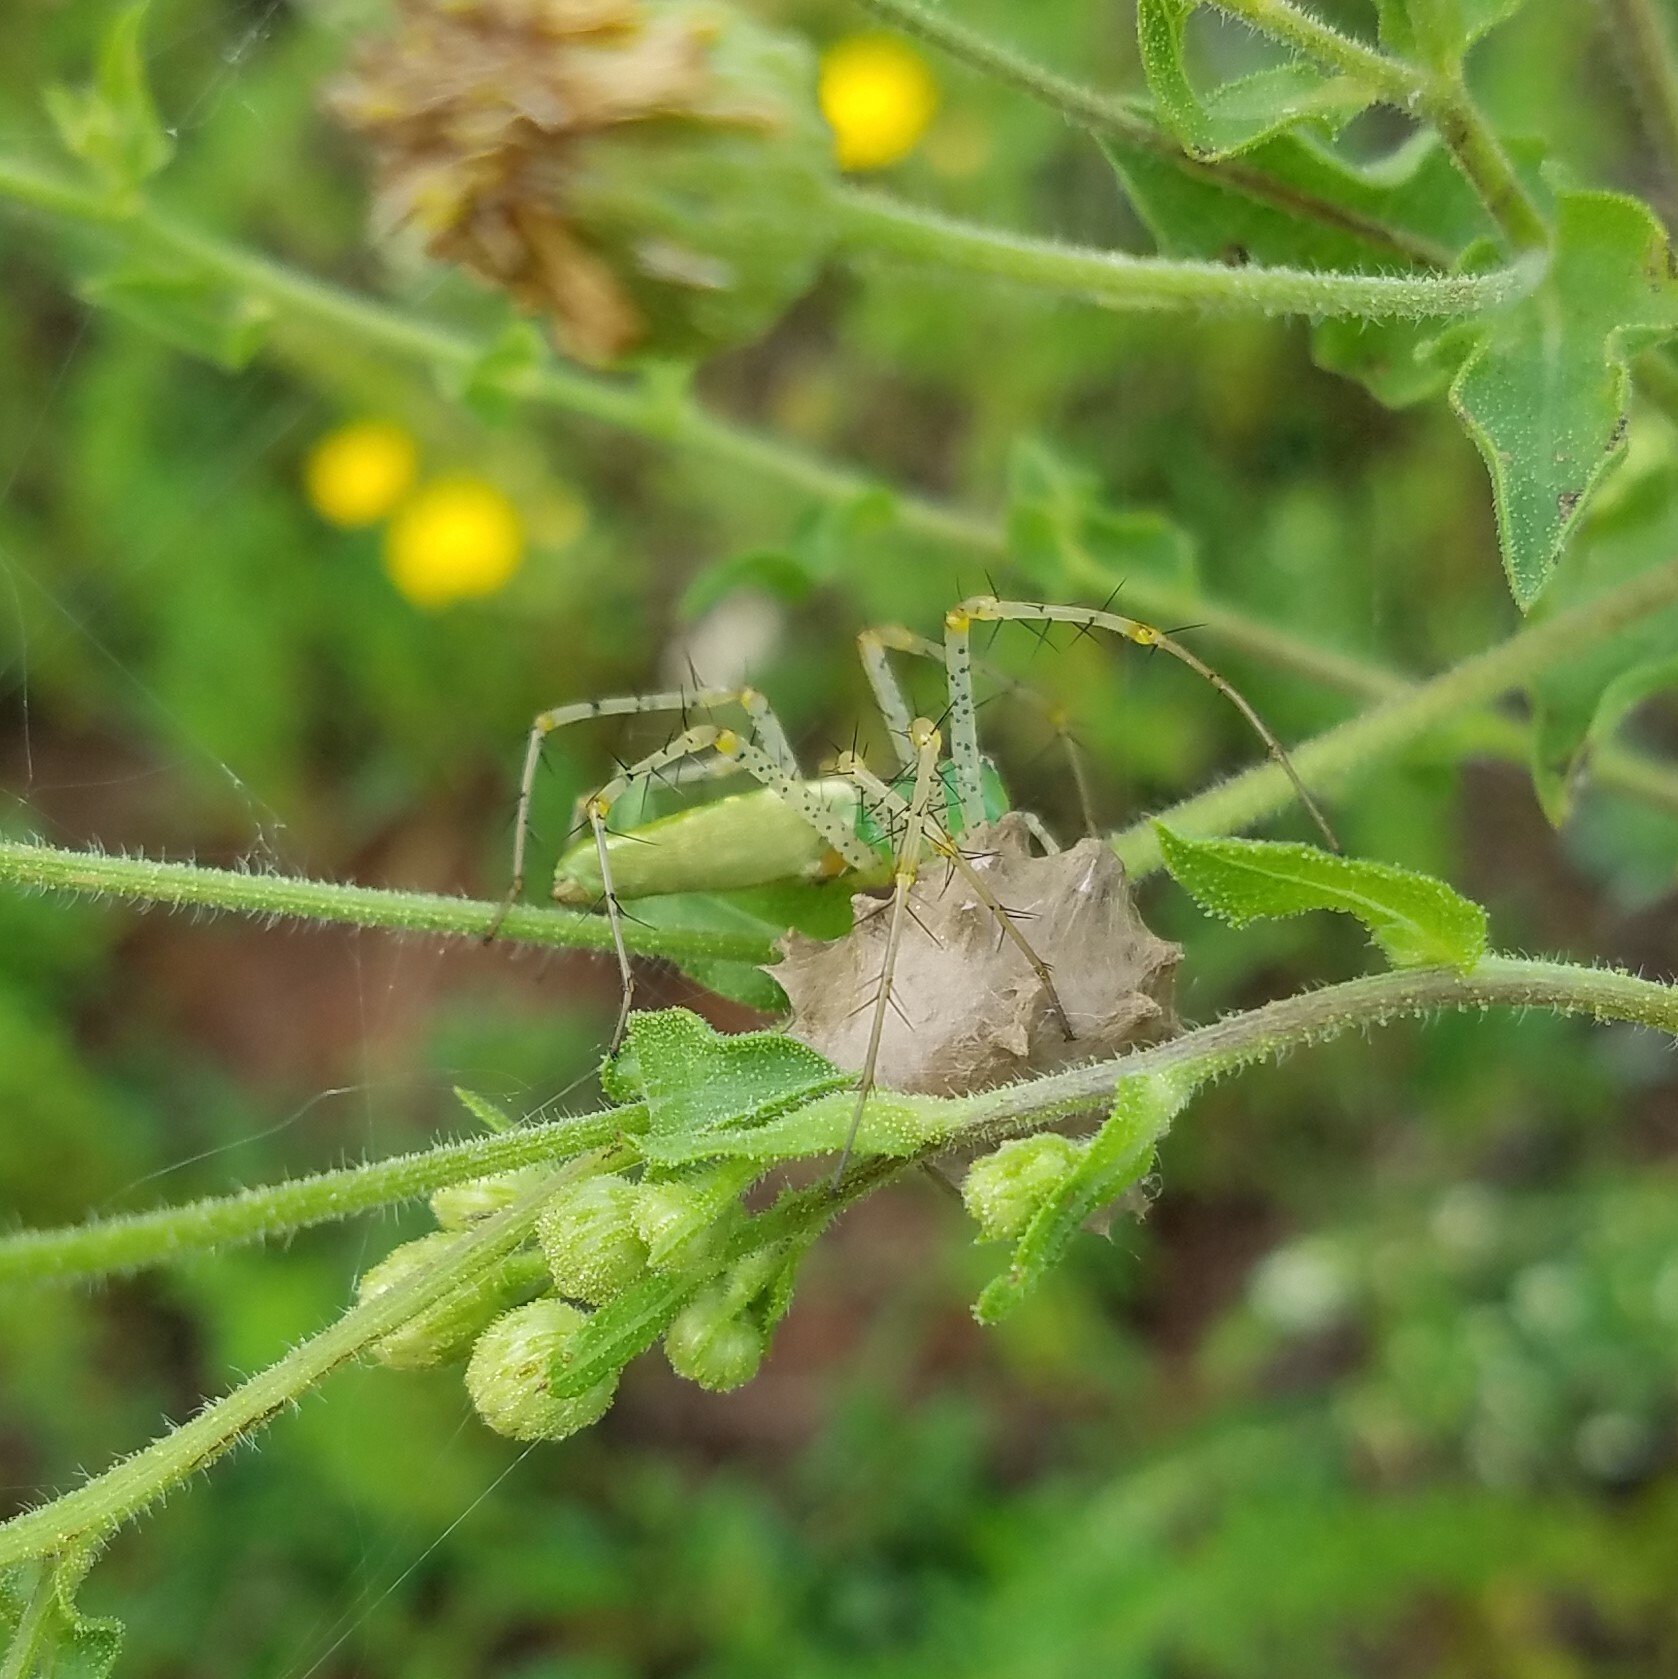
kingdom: Animalia
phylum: Arthropoda
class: Arachnida
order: Araneae
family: Oxyopidae
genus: Peucetia
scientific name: Peucetia viridans
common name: Lynx spiders
